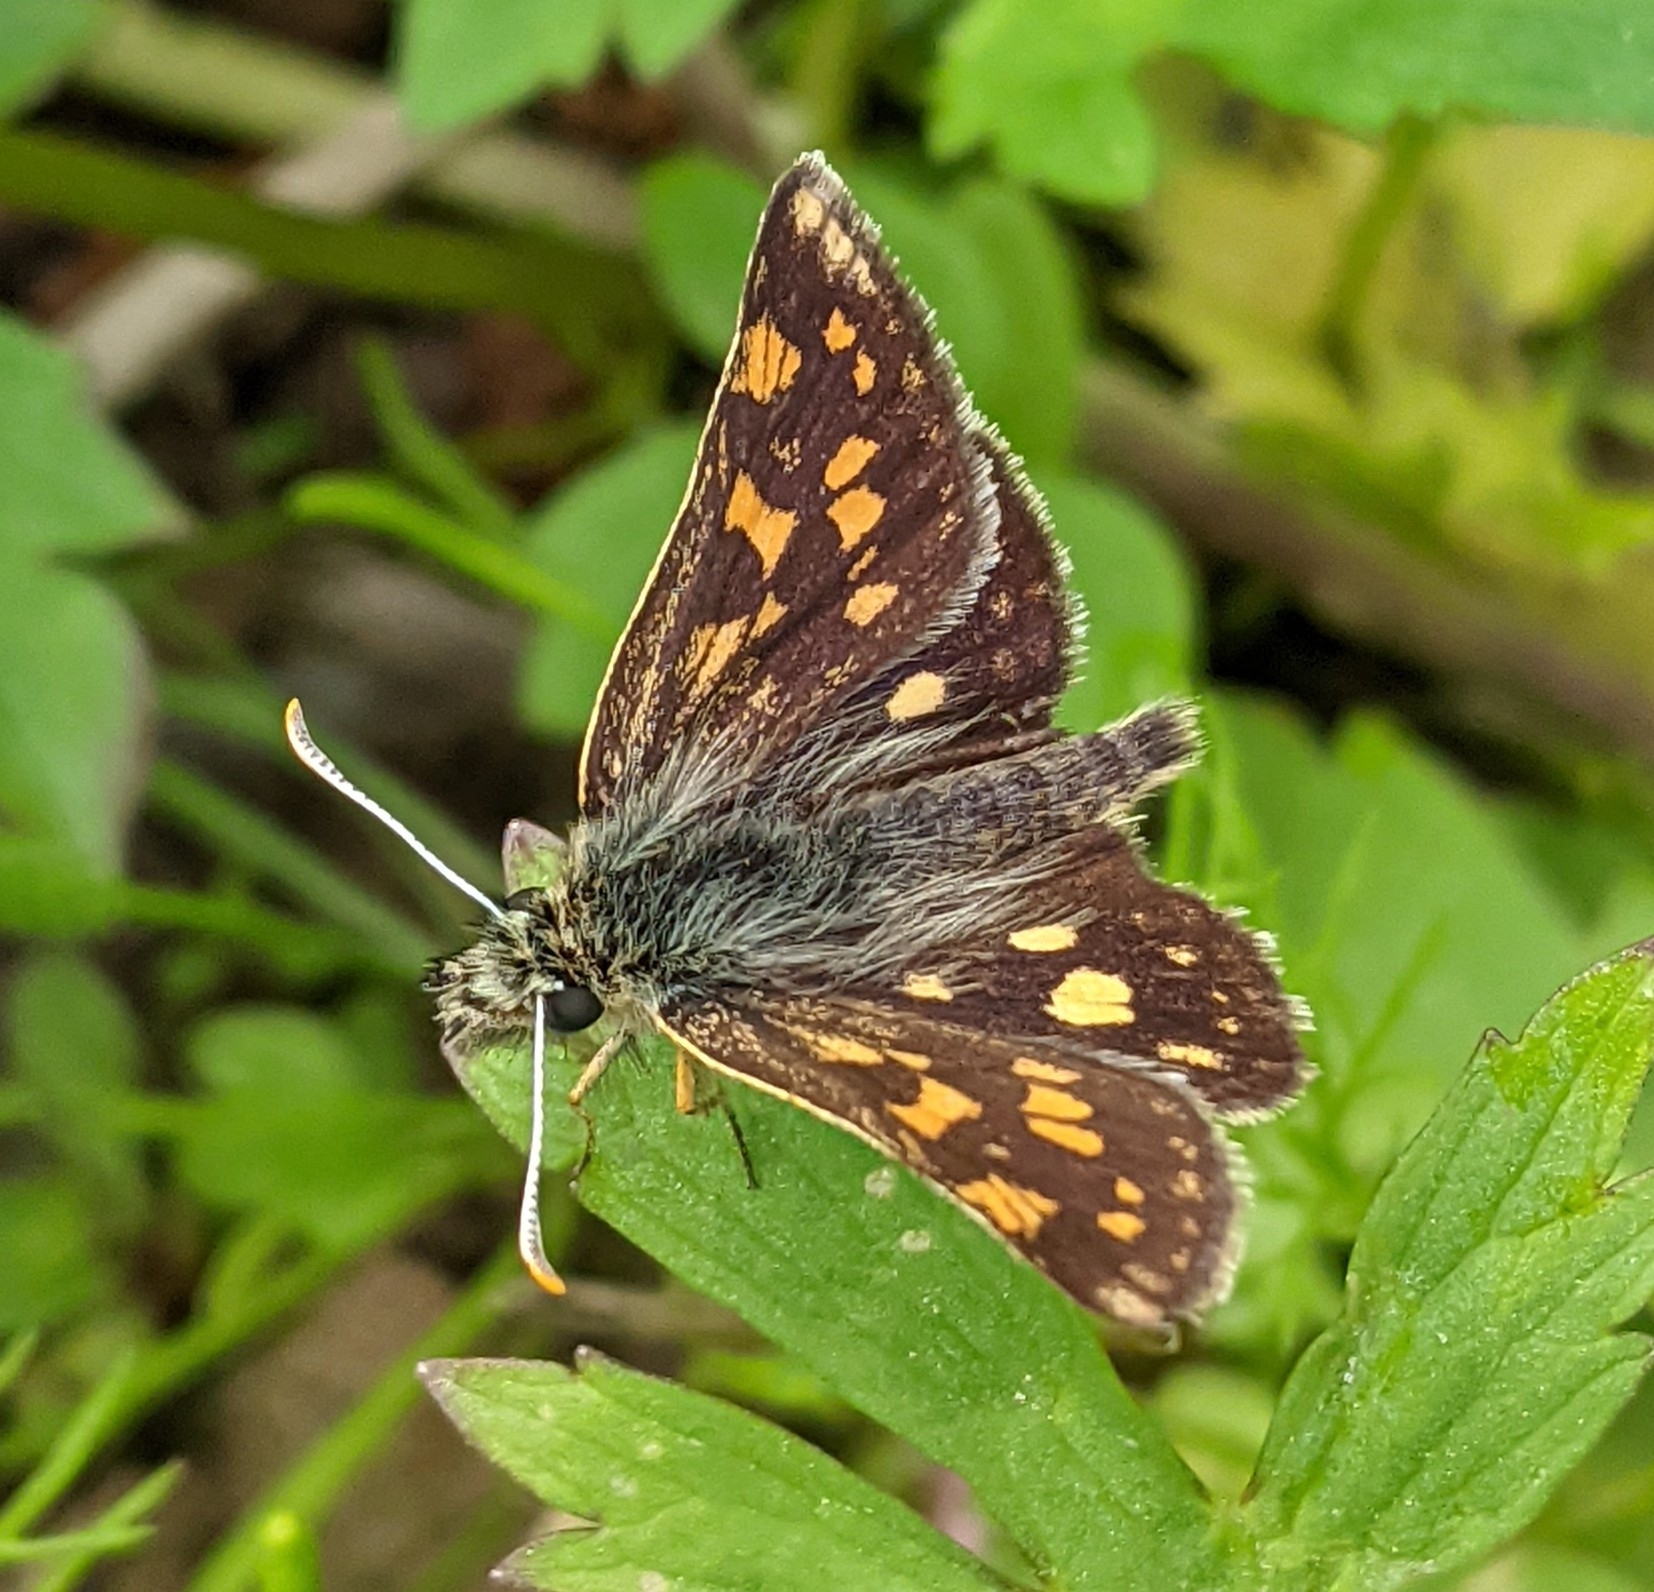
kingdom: Animalia
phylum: Arthropoda
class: Insecta
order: Lepidoptera
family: Hesperiidae
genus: Carterocephalus
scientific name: Carterocephalus palaemon
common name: Chequered skipper
